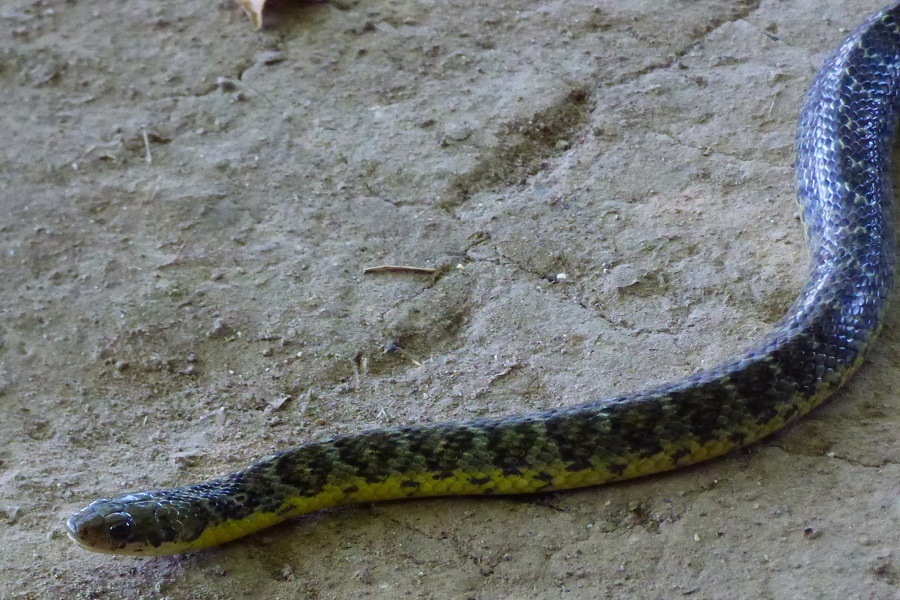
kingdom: Animalia
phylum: Chordata
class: Squamata
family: Colubridae
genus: Erythrolamprus
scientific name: Erythrolamprus poecilogyrus
